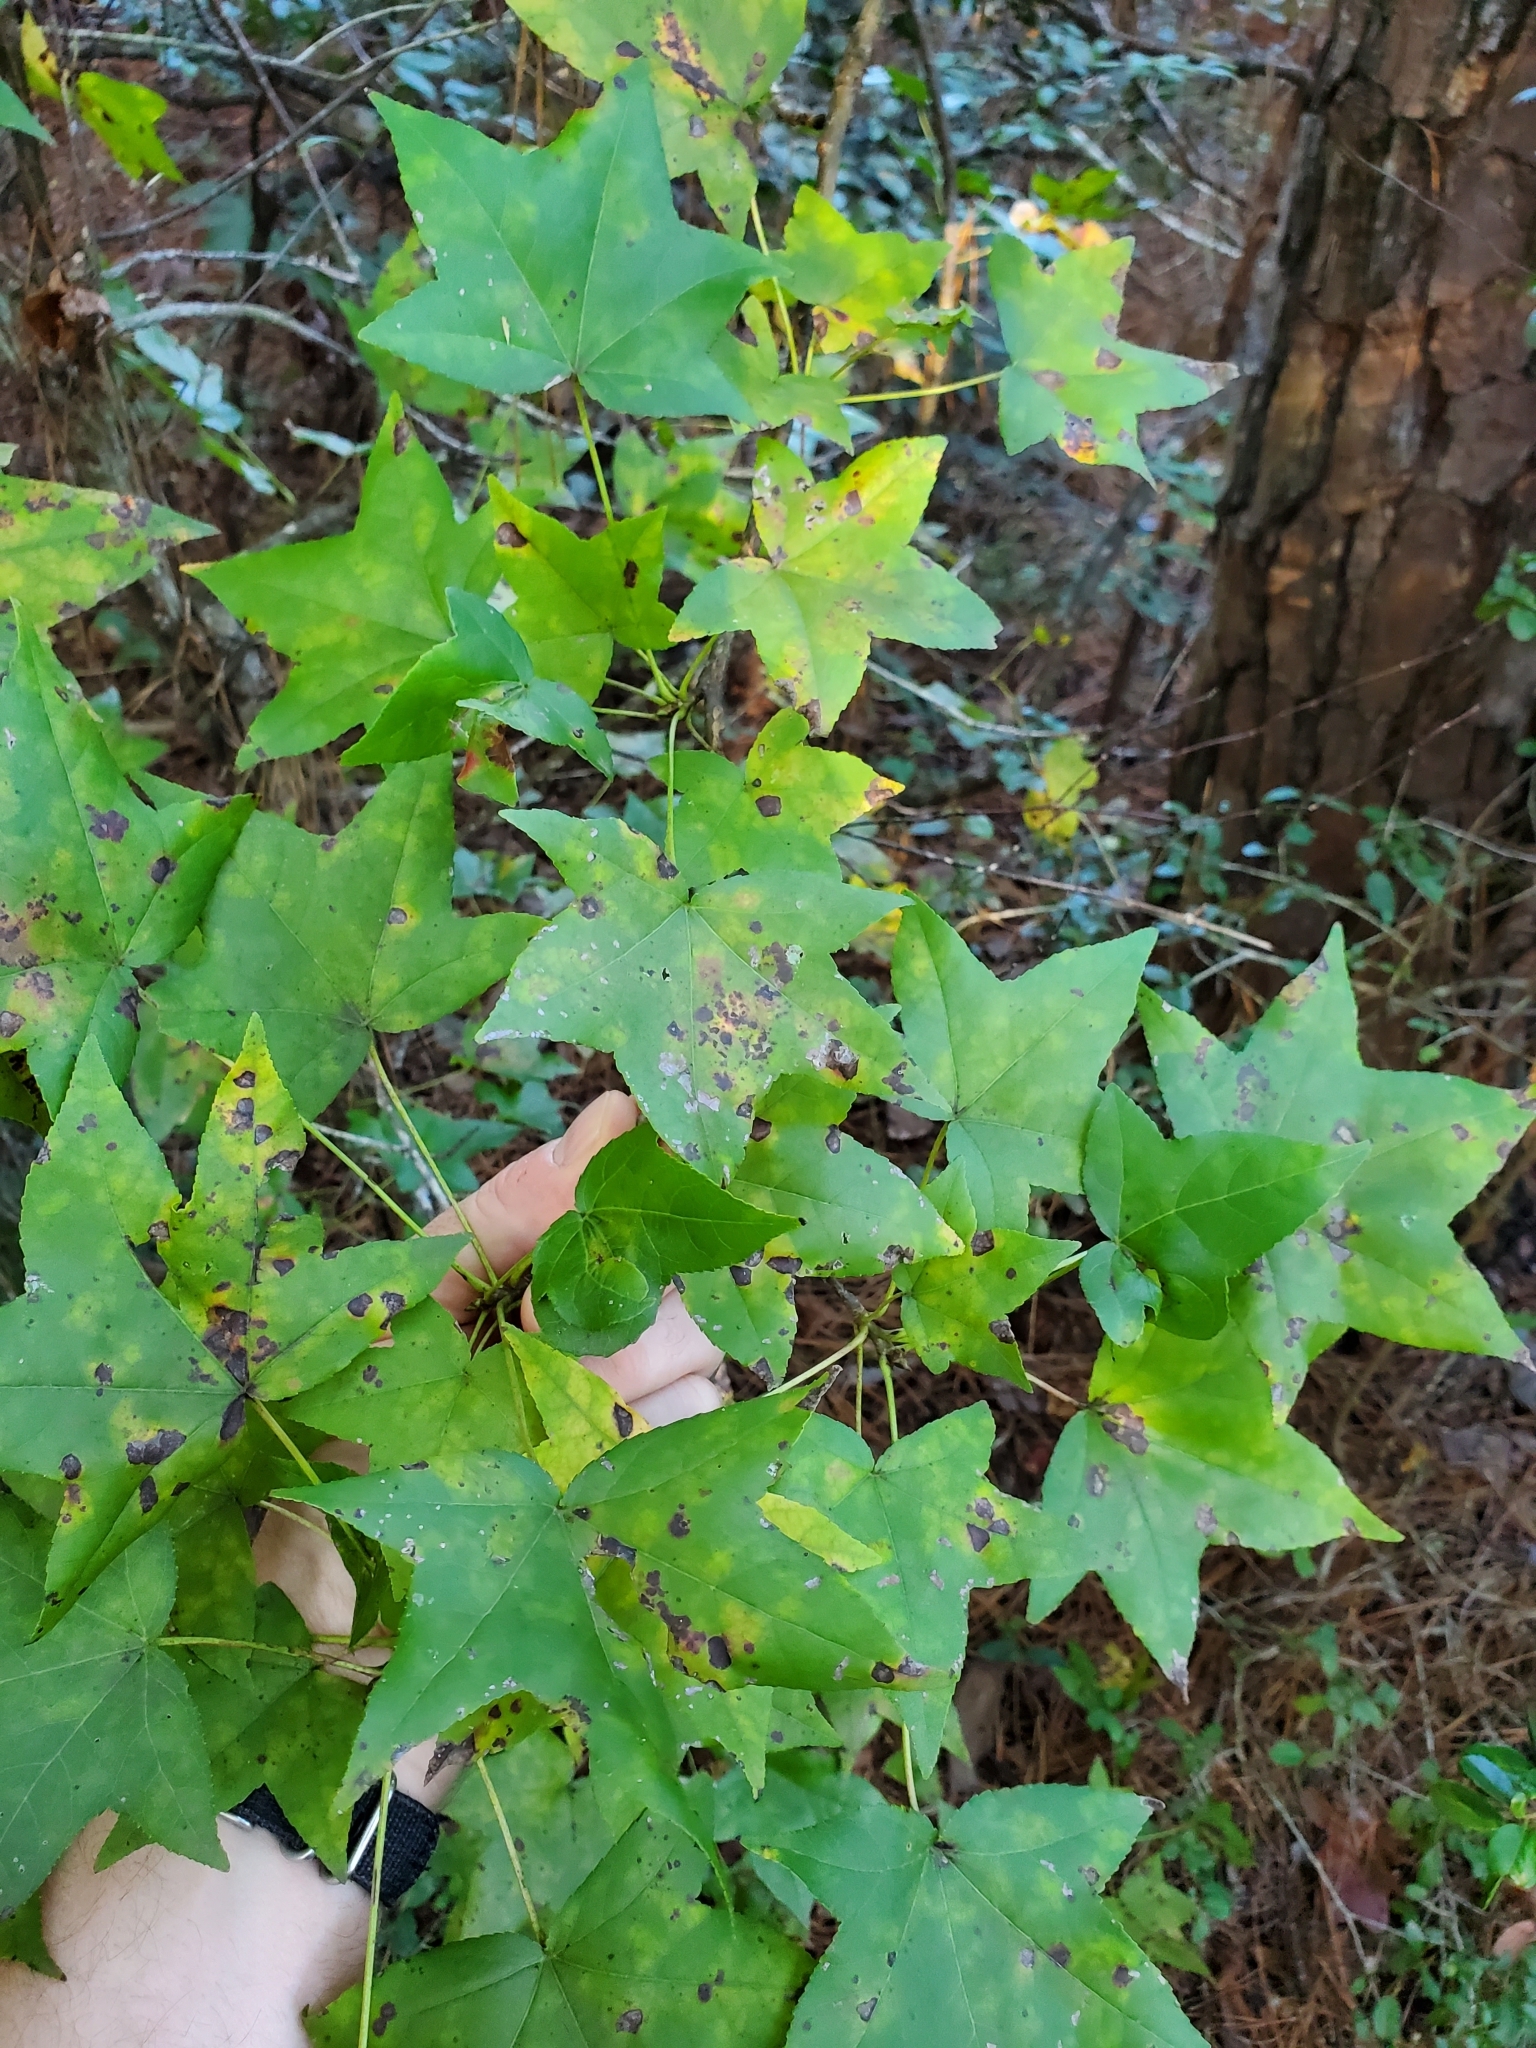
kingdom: Plantae
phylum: Tracheophyta
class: Magnoliopsida
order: Saxifragales
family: Altingiaceae
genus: Liquidambar
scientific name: Liquidambar styraciflua
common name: Sweet gum
